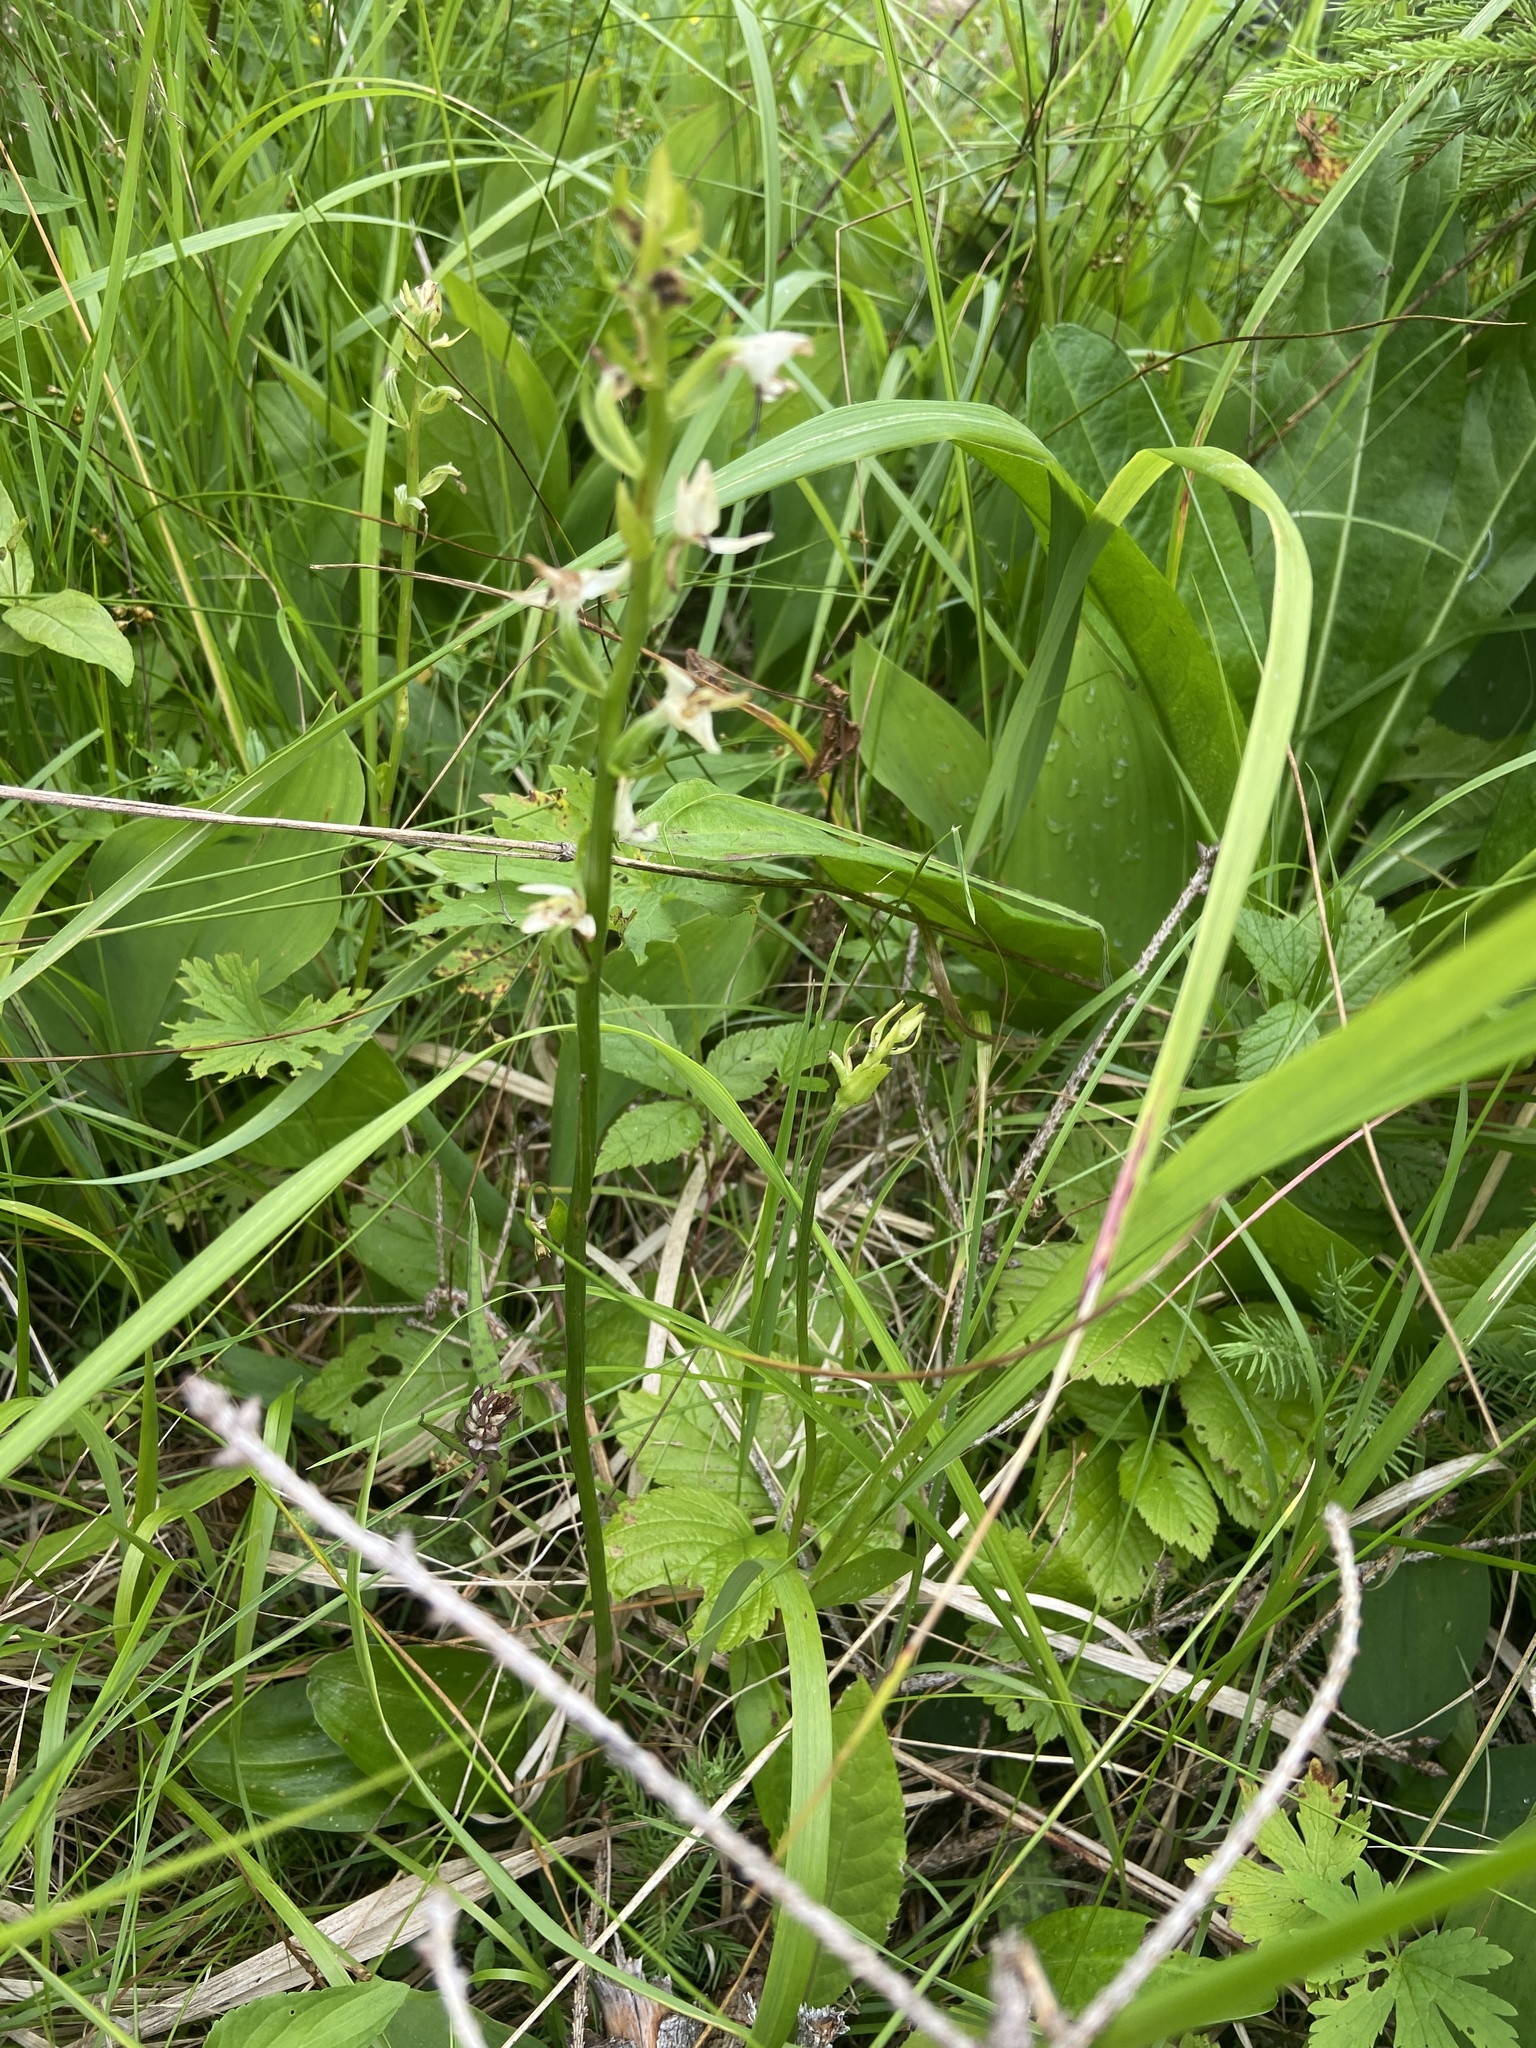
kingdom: Plantae
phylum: Tracheophyta
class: Liliopsida
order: Asparagales
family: Orchidaceae
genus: Platanthera
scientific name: Platanthera bifolia
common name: Lesser butterfly-orchid
